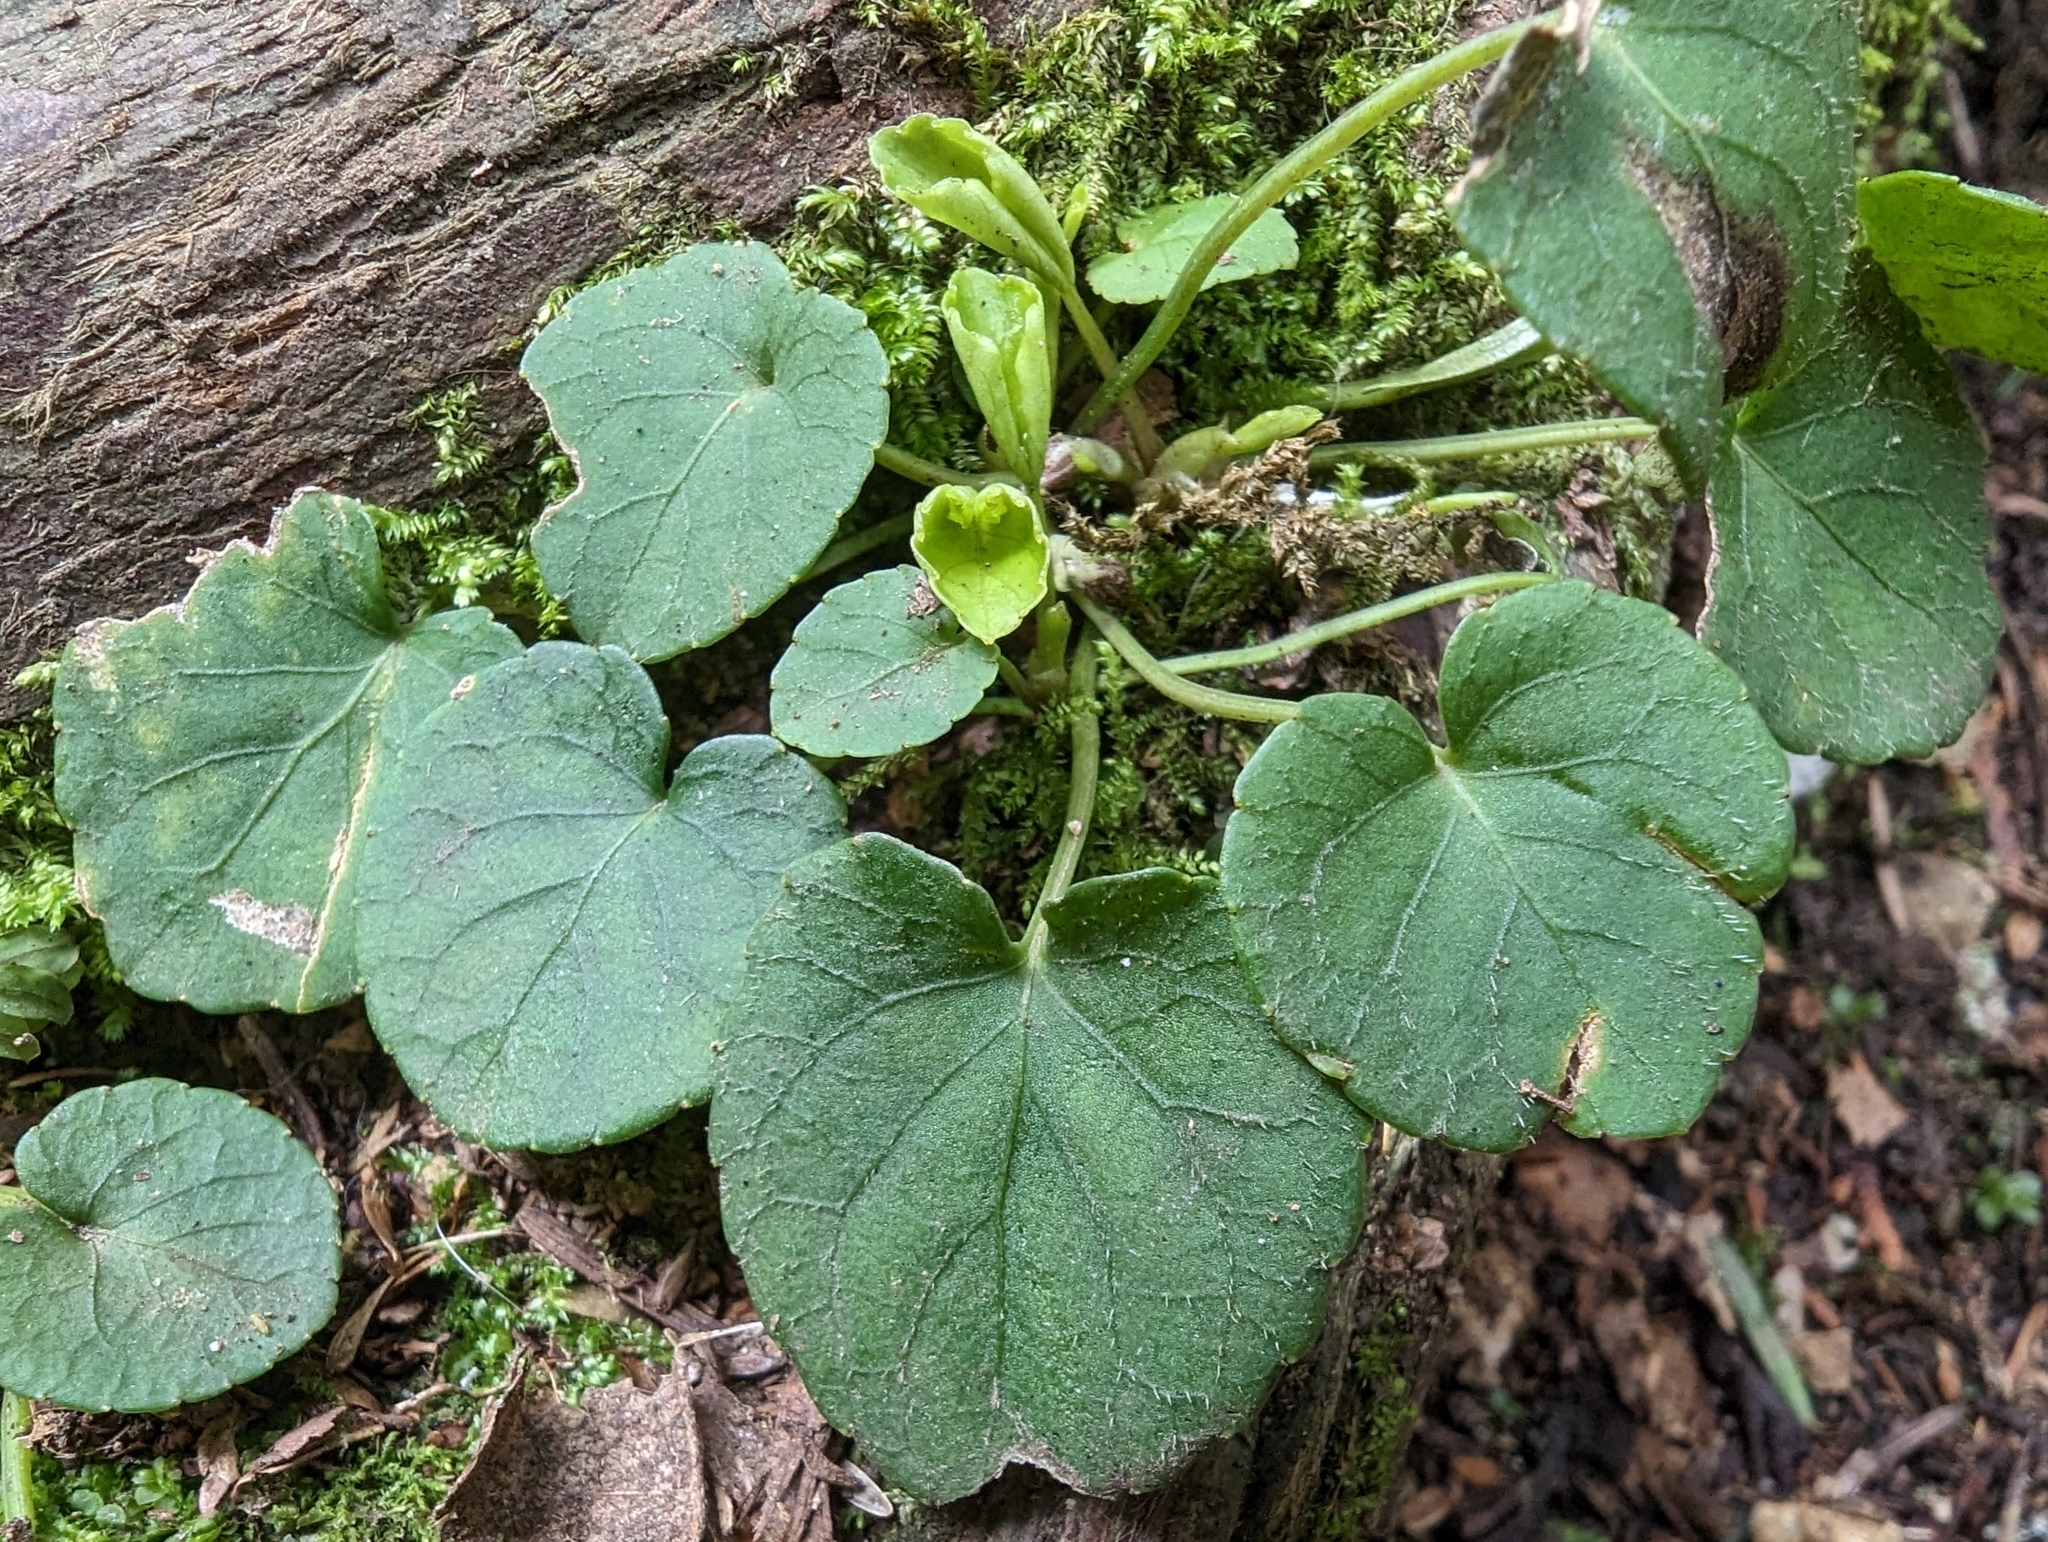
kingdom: Plantae
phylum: Tracheophyta
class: Magnoliopsida
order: Malpighiales
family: Violaceae
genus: Viola
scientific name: Viola sempervirens
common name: Evergreen violet
